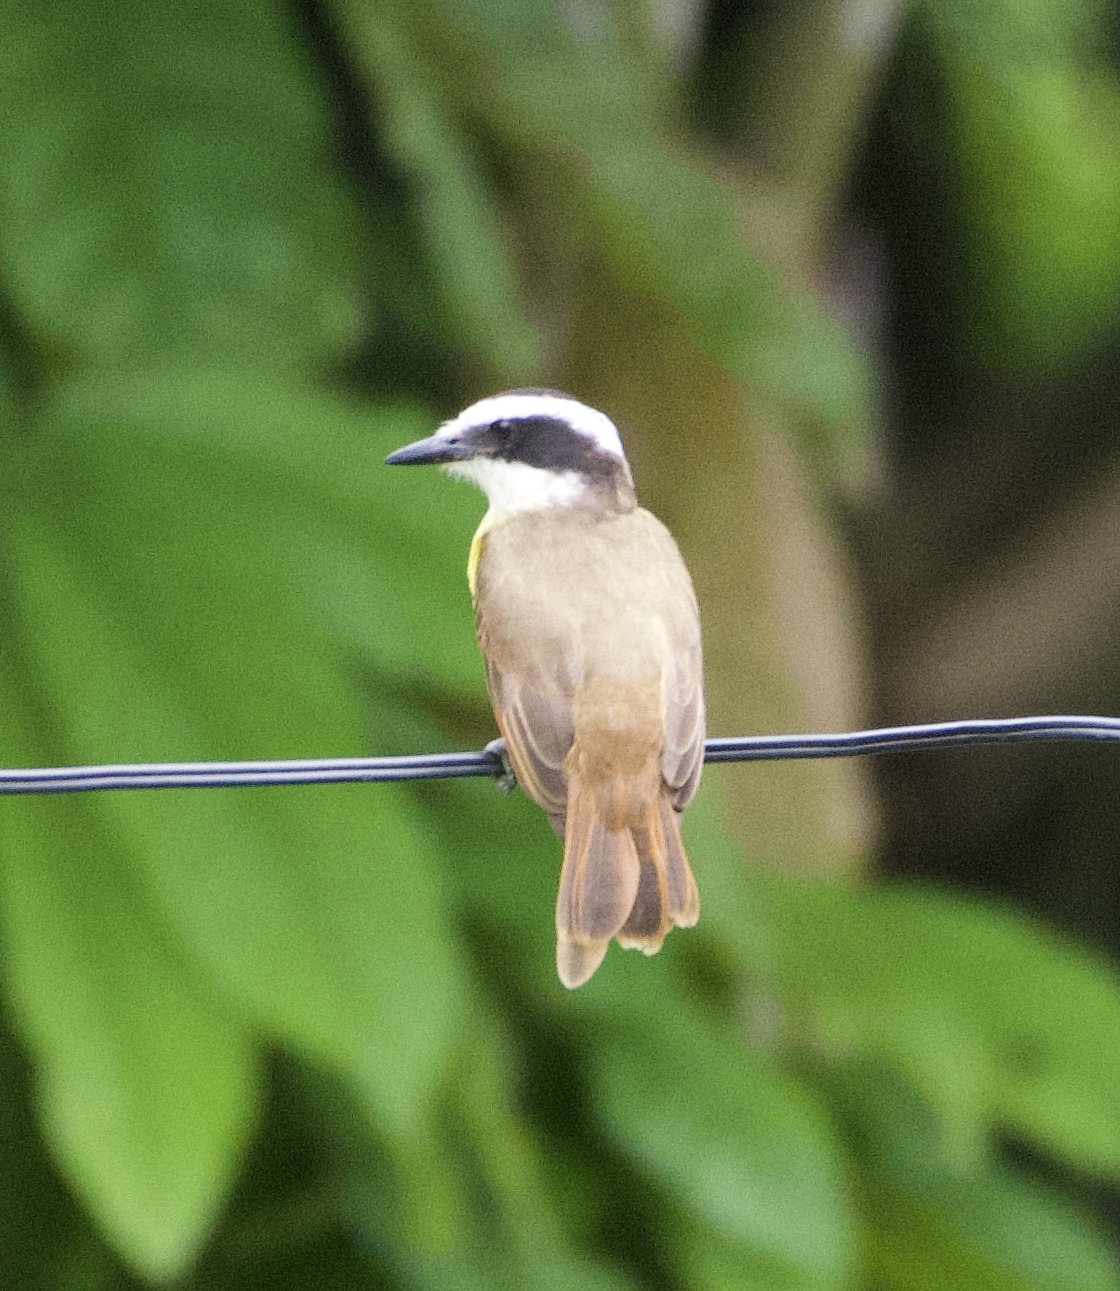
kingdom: Animalia
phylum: Chordata
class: Aves
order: Passeriformes
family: Tyrannidae
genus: Pitangus
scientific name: Pitangus sulphuratus
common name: Great kiskadee
